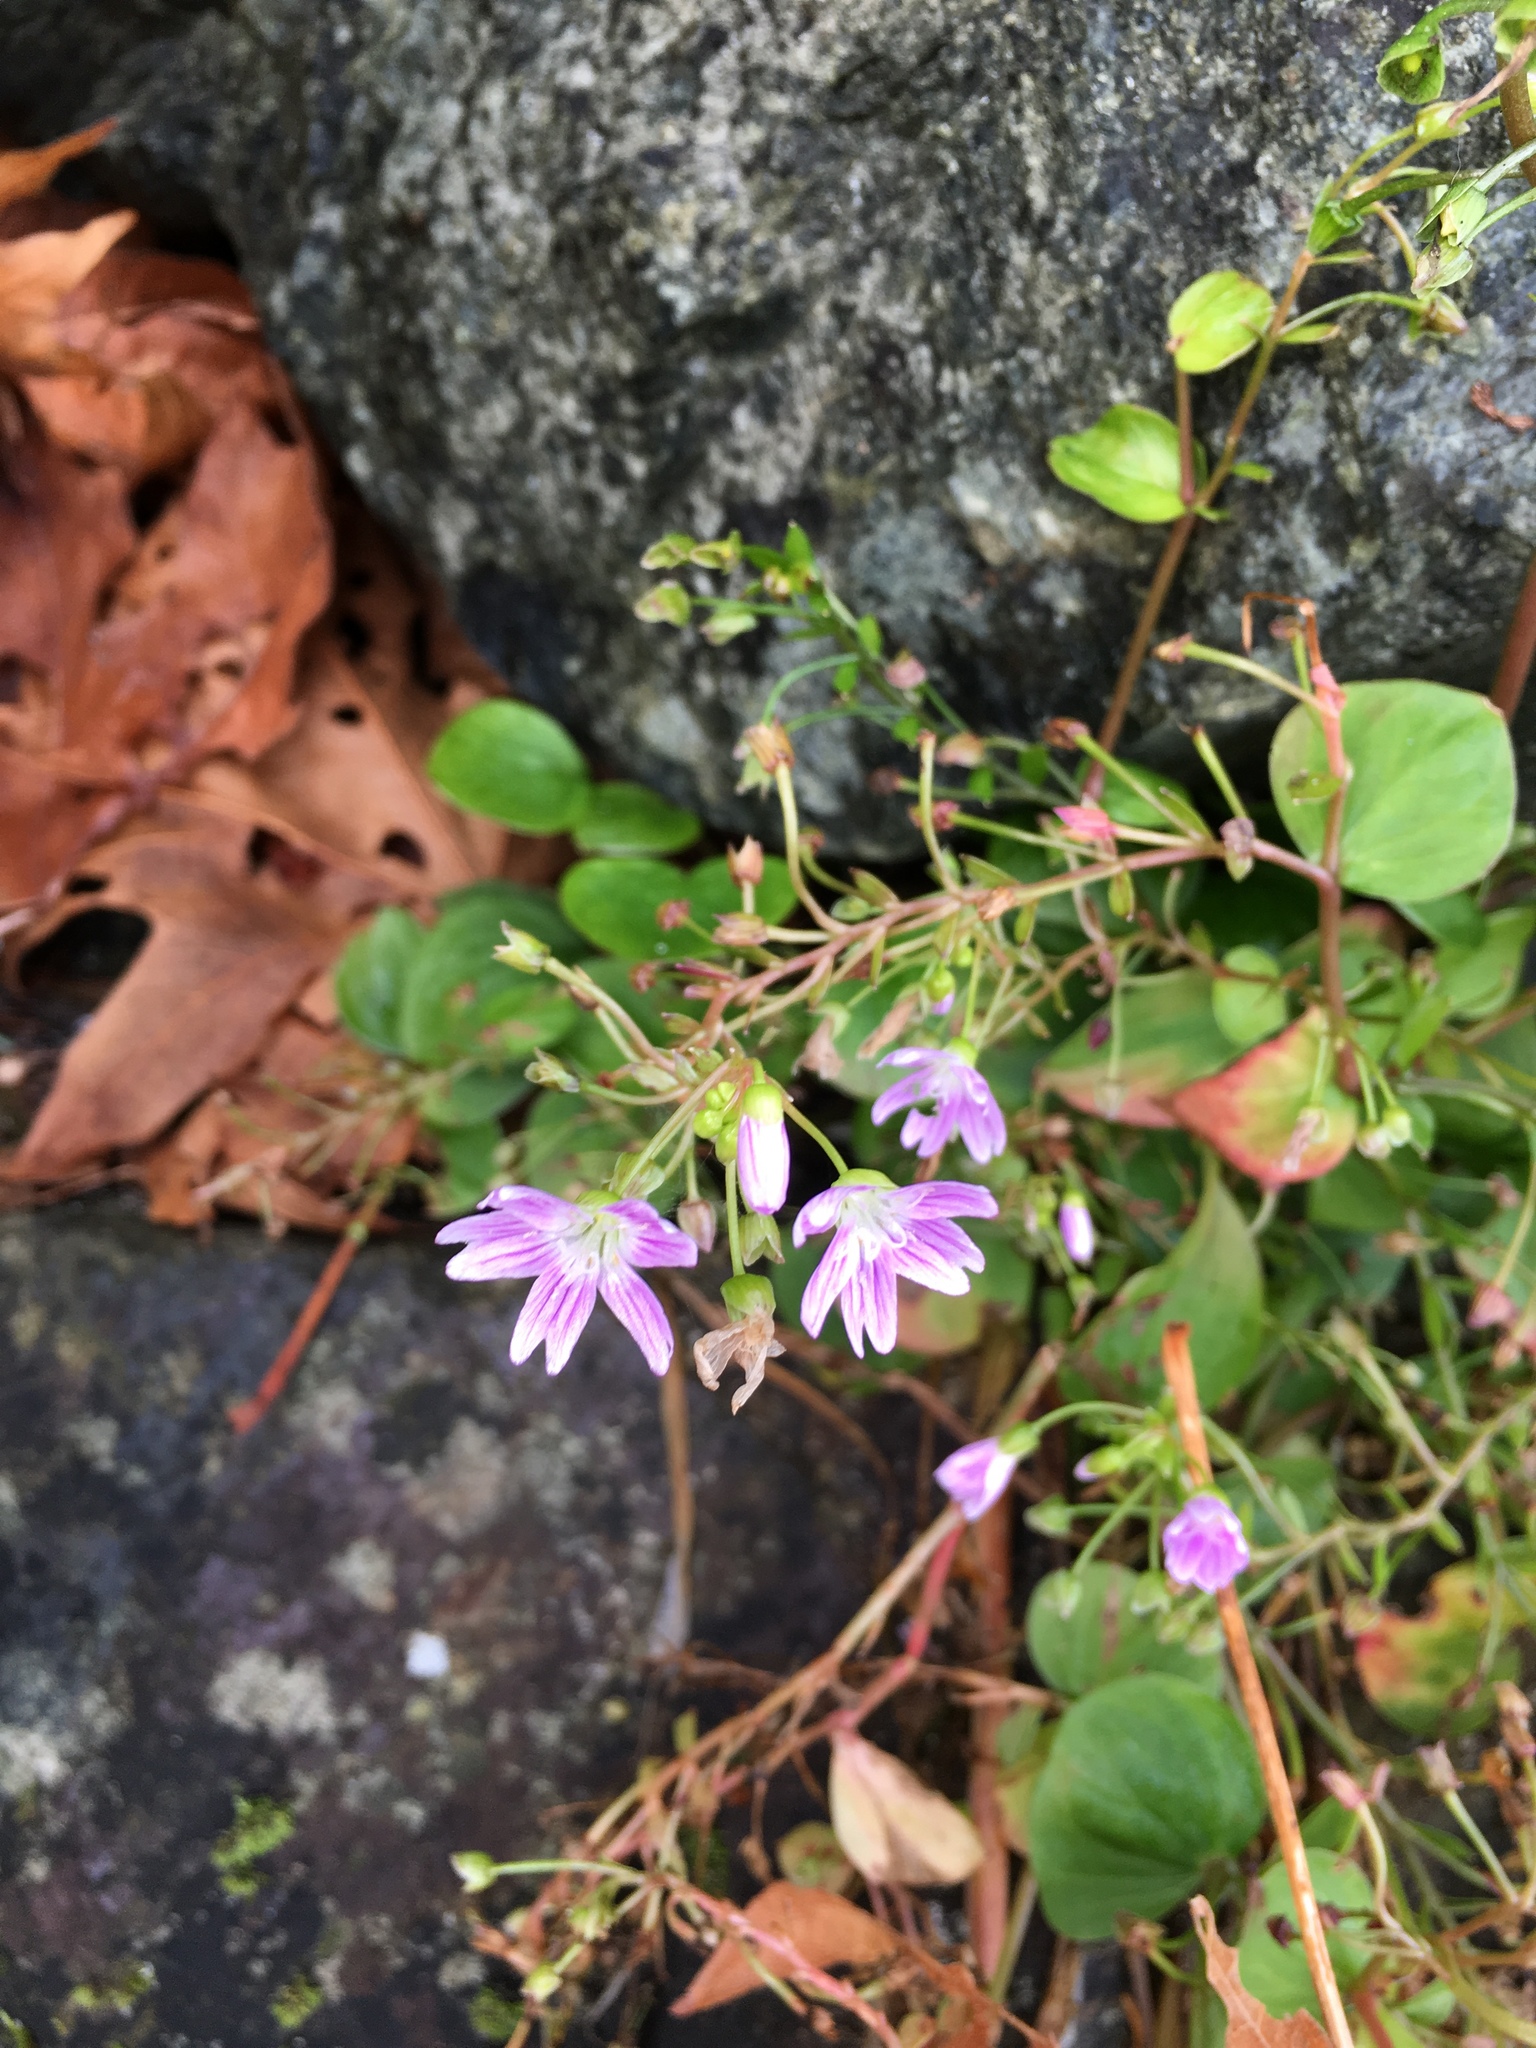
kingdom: Plantae
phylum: Tracheophyta
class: Magnoliopsida
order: Caryophyllales
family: Montiaceae
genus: Claytonia
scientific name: Claytonia sibirica
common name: Pink purslane
